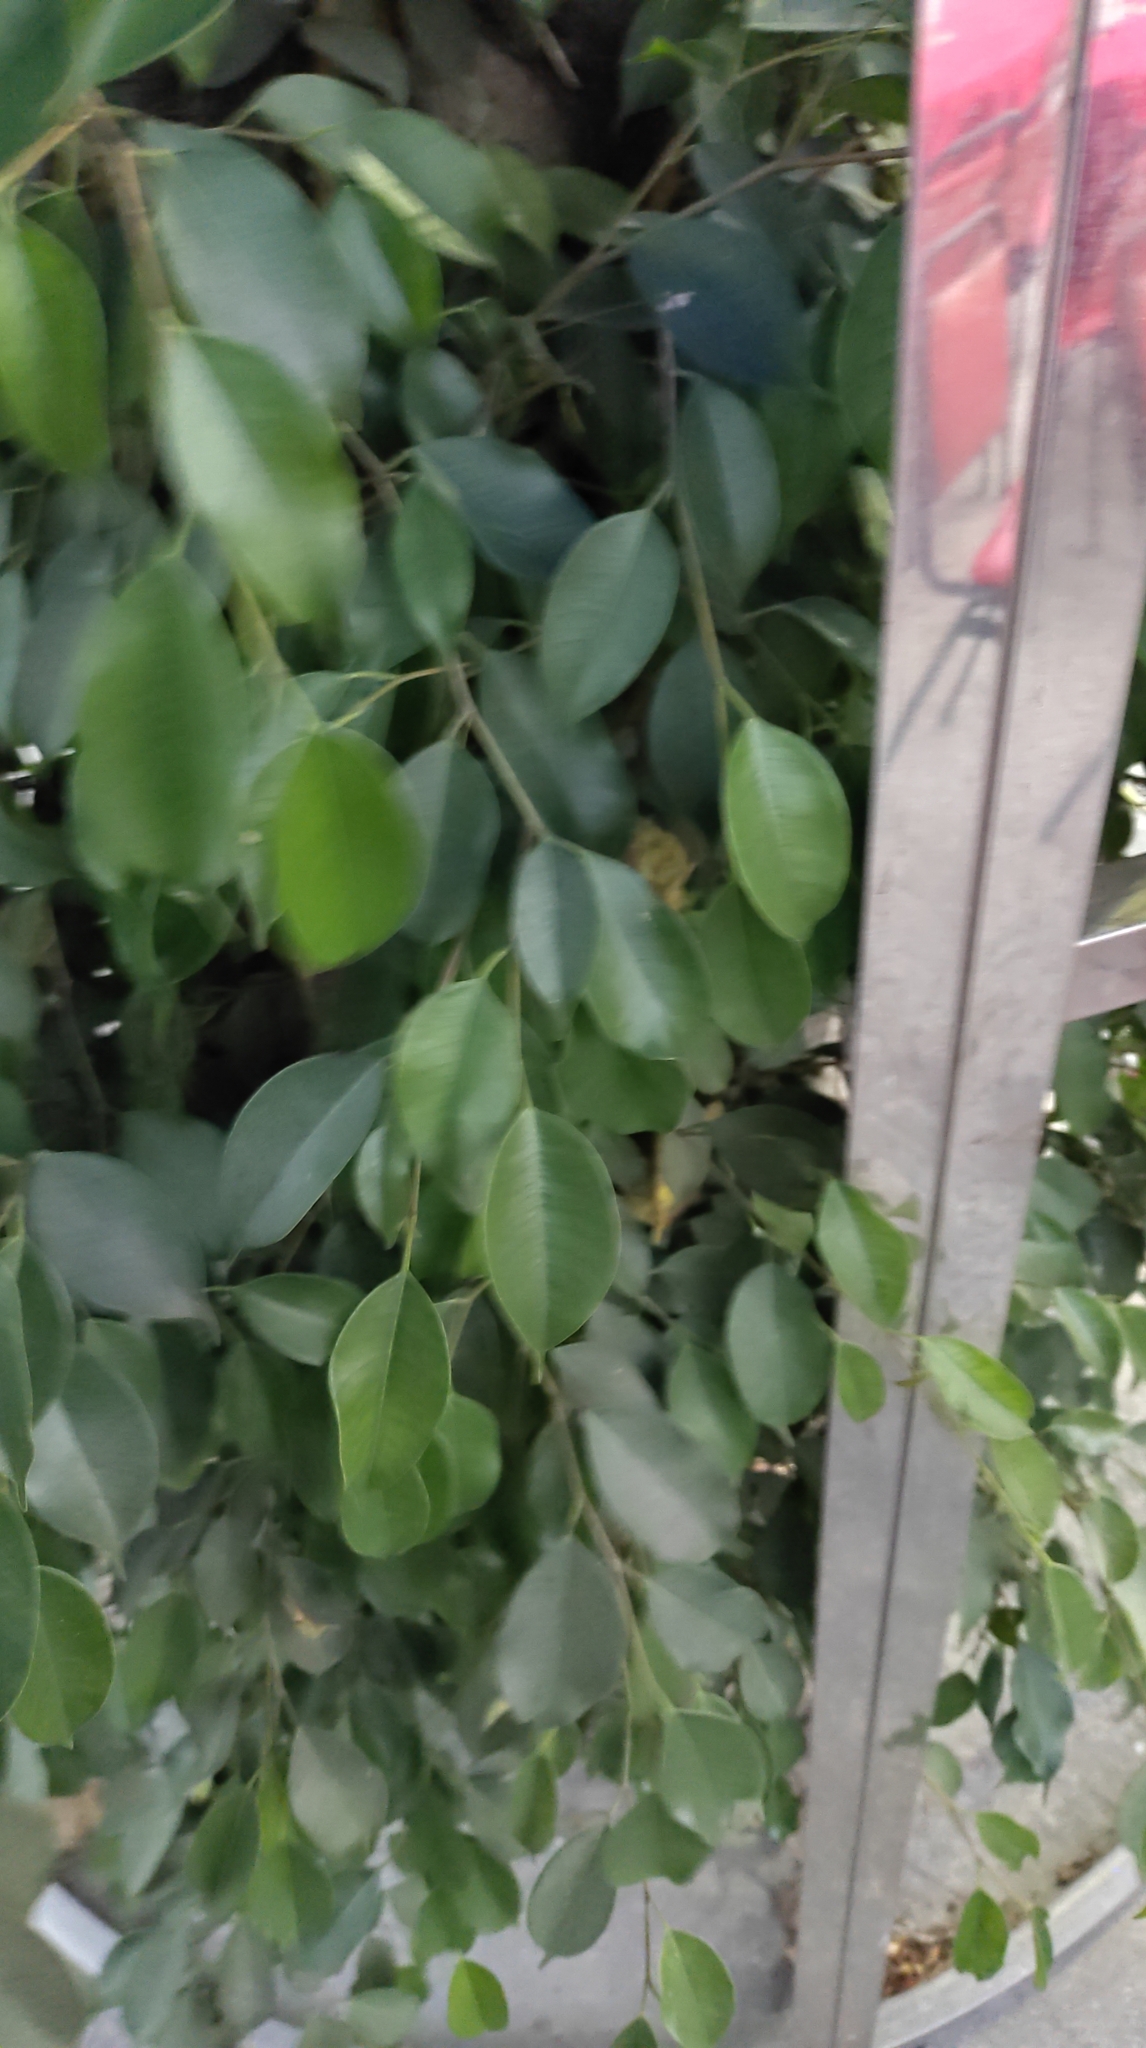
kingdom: Plantae
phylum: Tracheophyta
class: Magnoliopsida
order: Rosales
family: Moraceae
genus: Ficus
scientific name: Ficus benjamina
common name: Weeping fig
